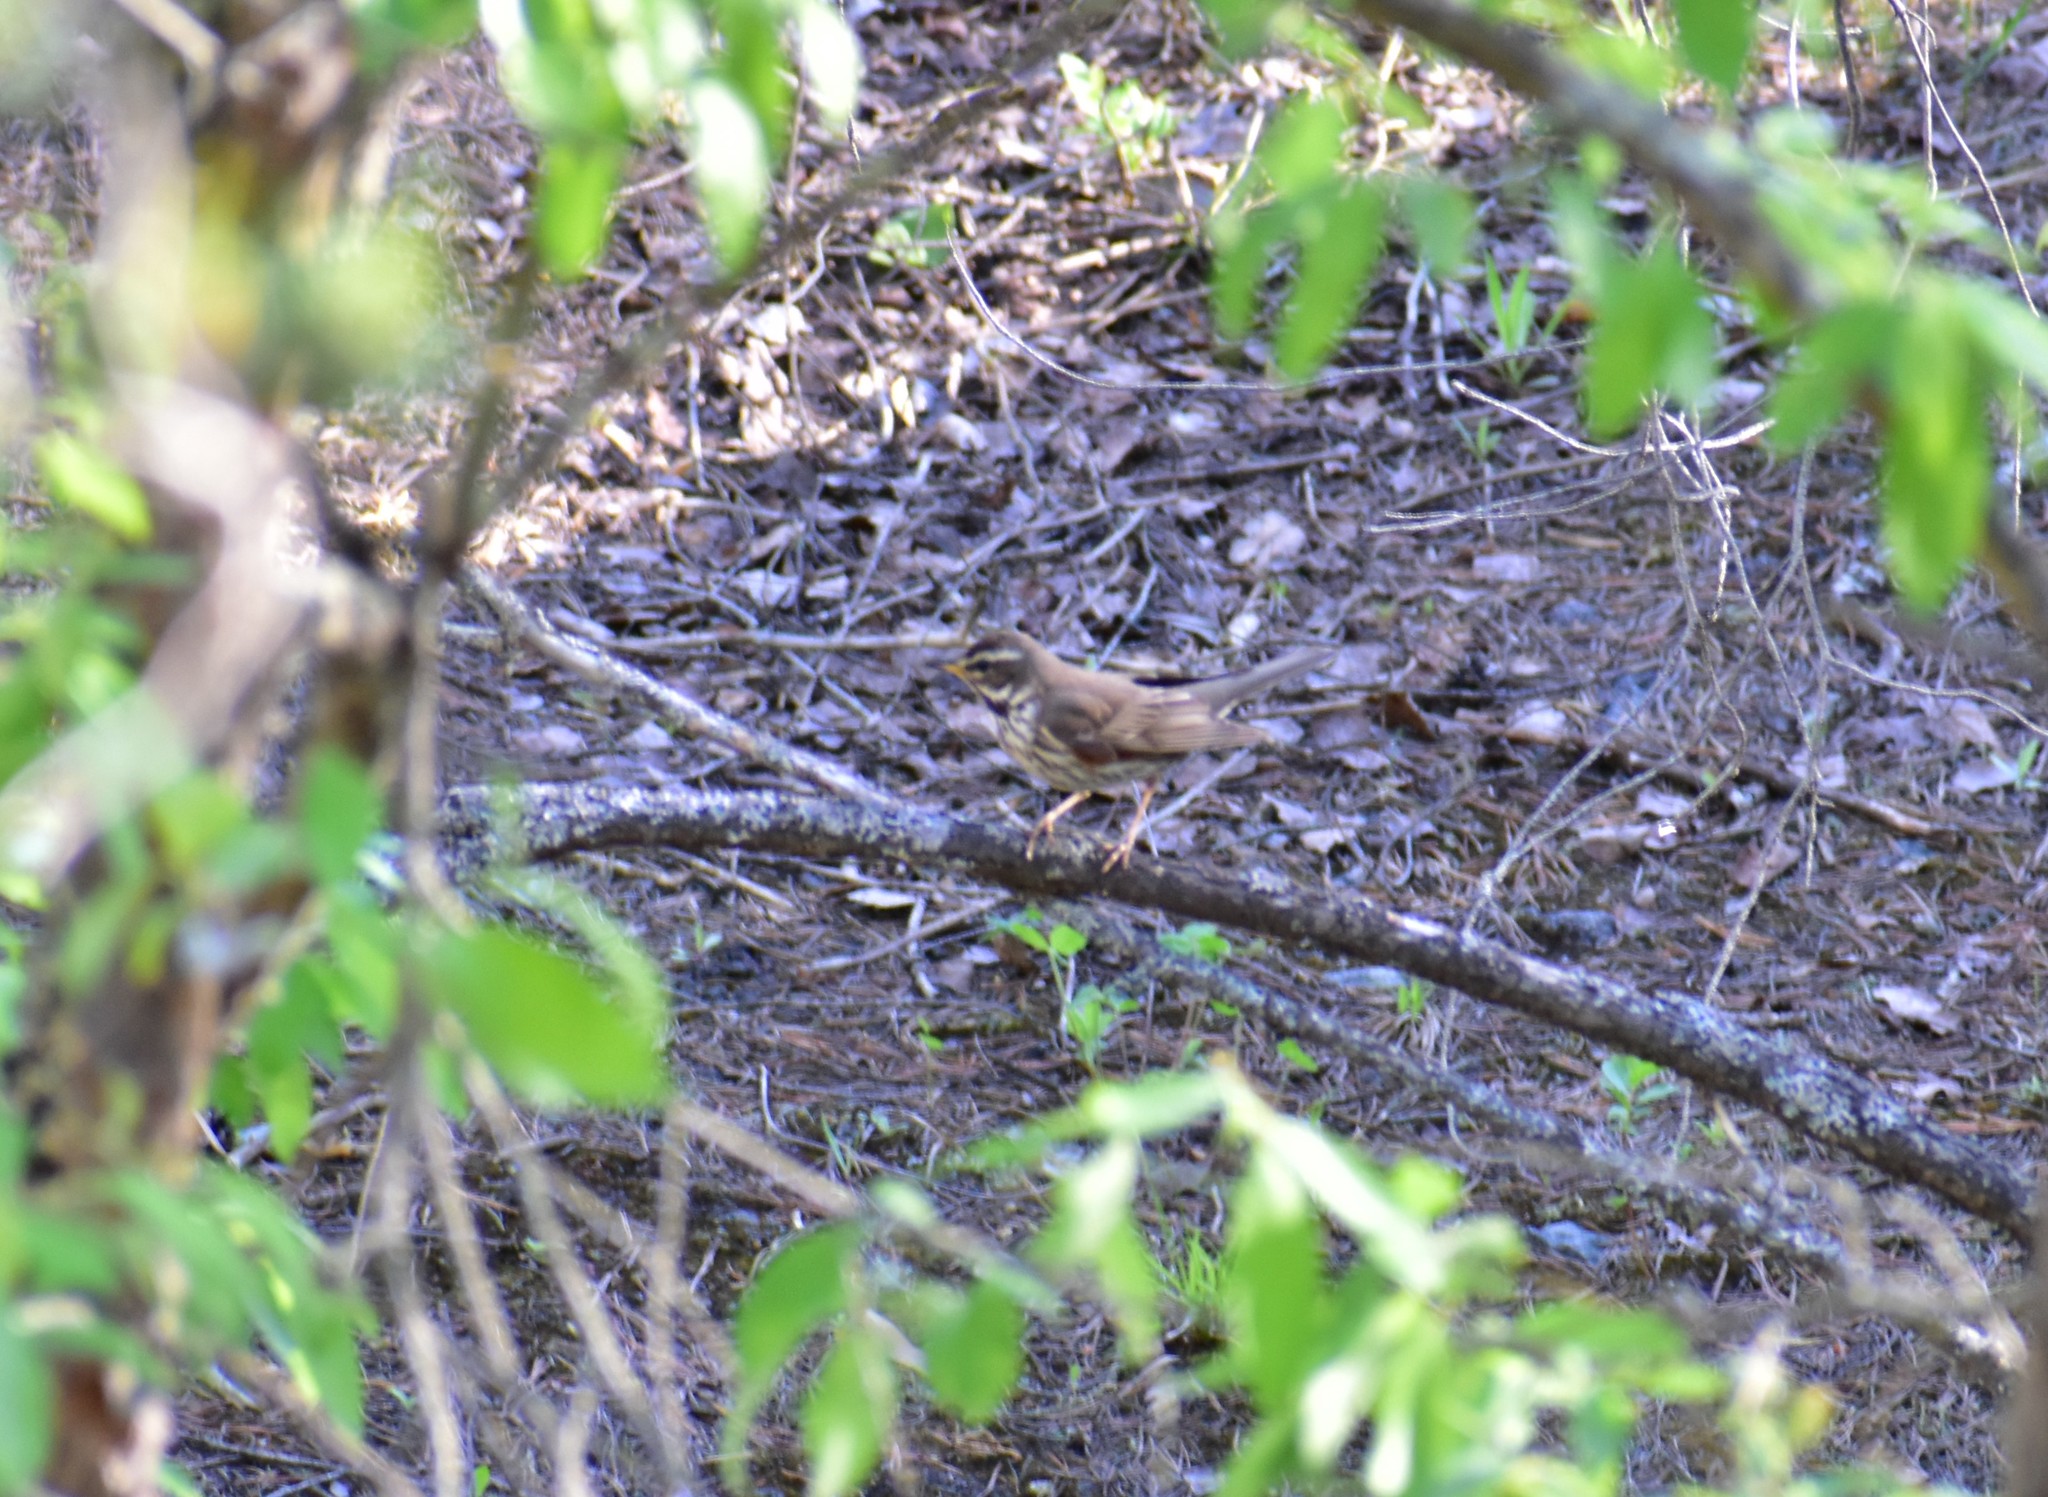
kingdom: Animalia
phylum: Chordata
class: Aves
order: Passeriformes
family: Turdidae
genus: Turdus
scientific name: Turdus iliacus
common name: Redwing
